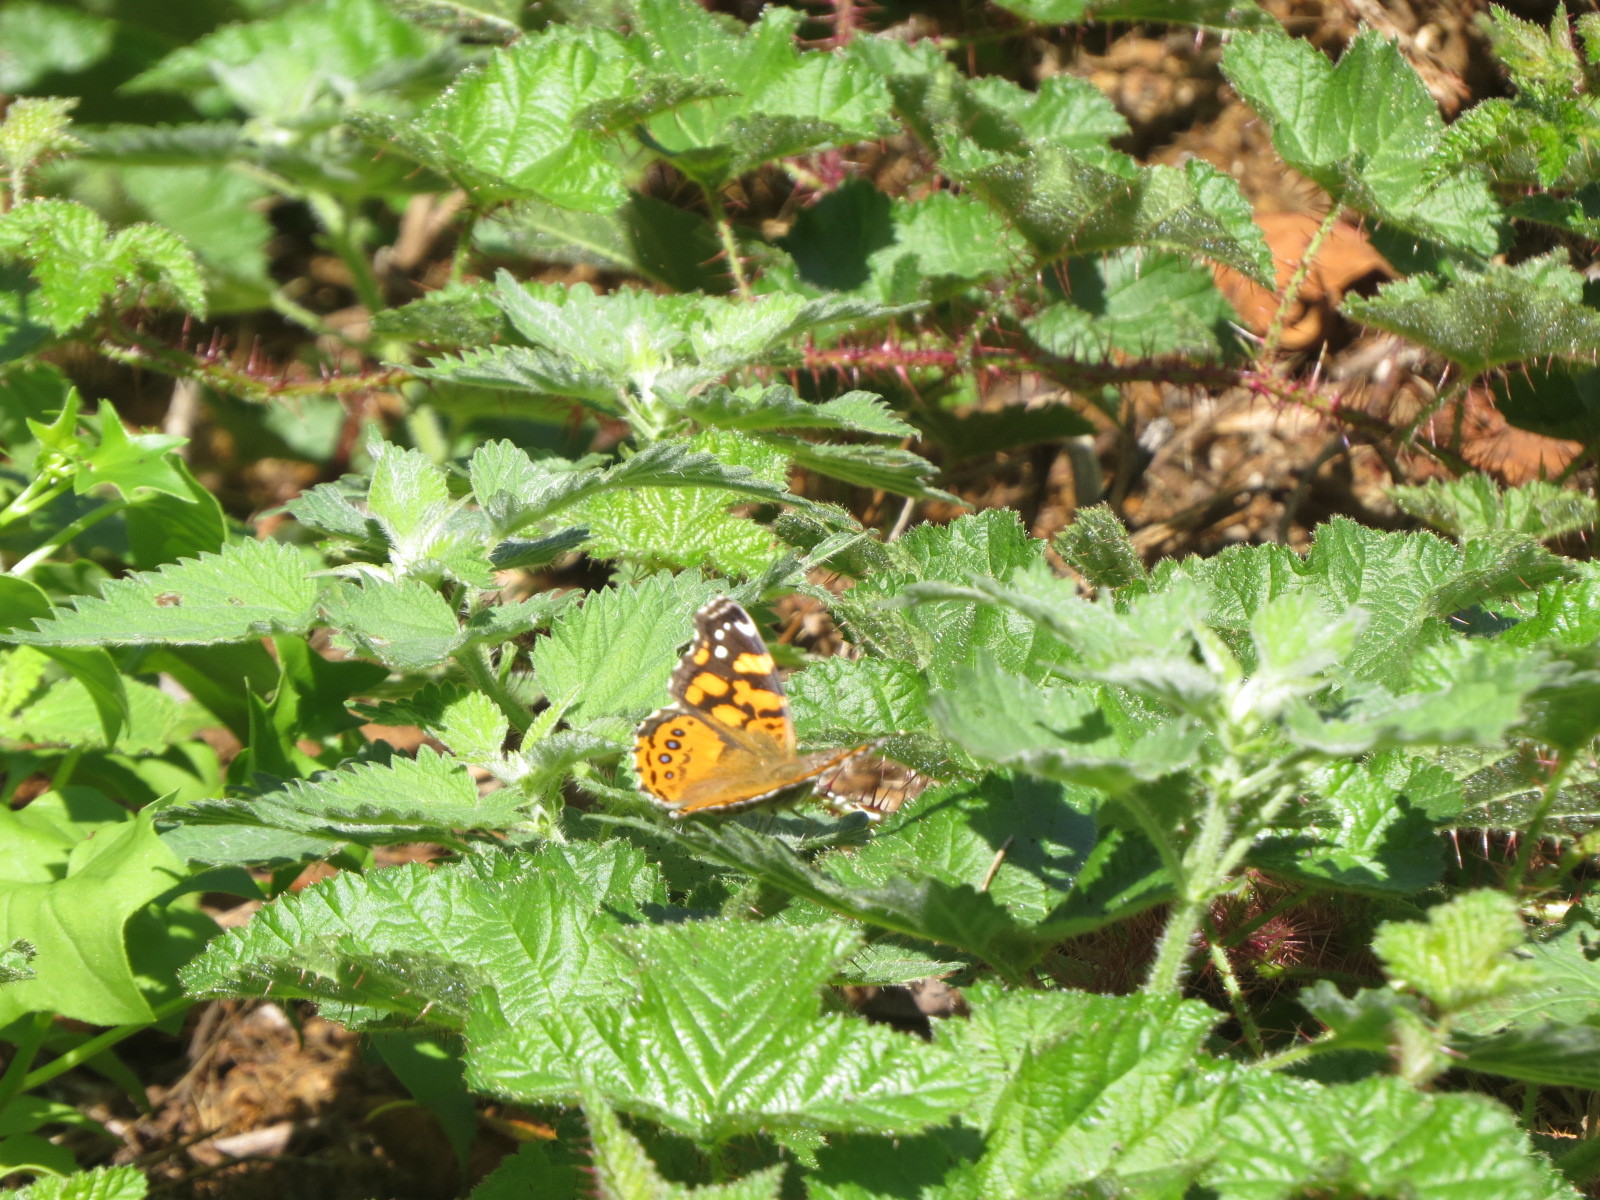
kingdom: Animalia
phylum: Arthropoda
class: Insecta
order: Lepidoptera
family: Nymphalidae
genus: Vanessa
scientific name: Vanessa annabella
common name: West coast lady
